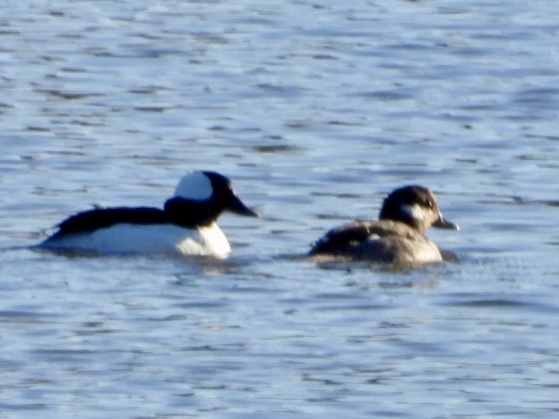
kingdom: Animalia
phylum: Chordata
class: Aves
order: Anseriformes
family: Anatidae
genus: Bucephala
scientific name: Bucephala albeola
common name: Bufflehead
